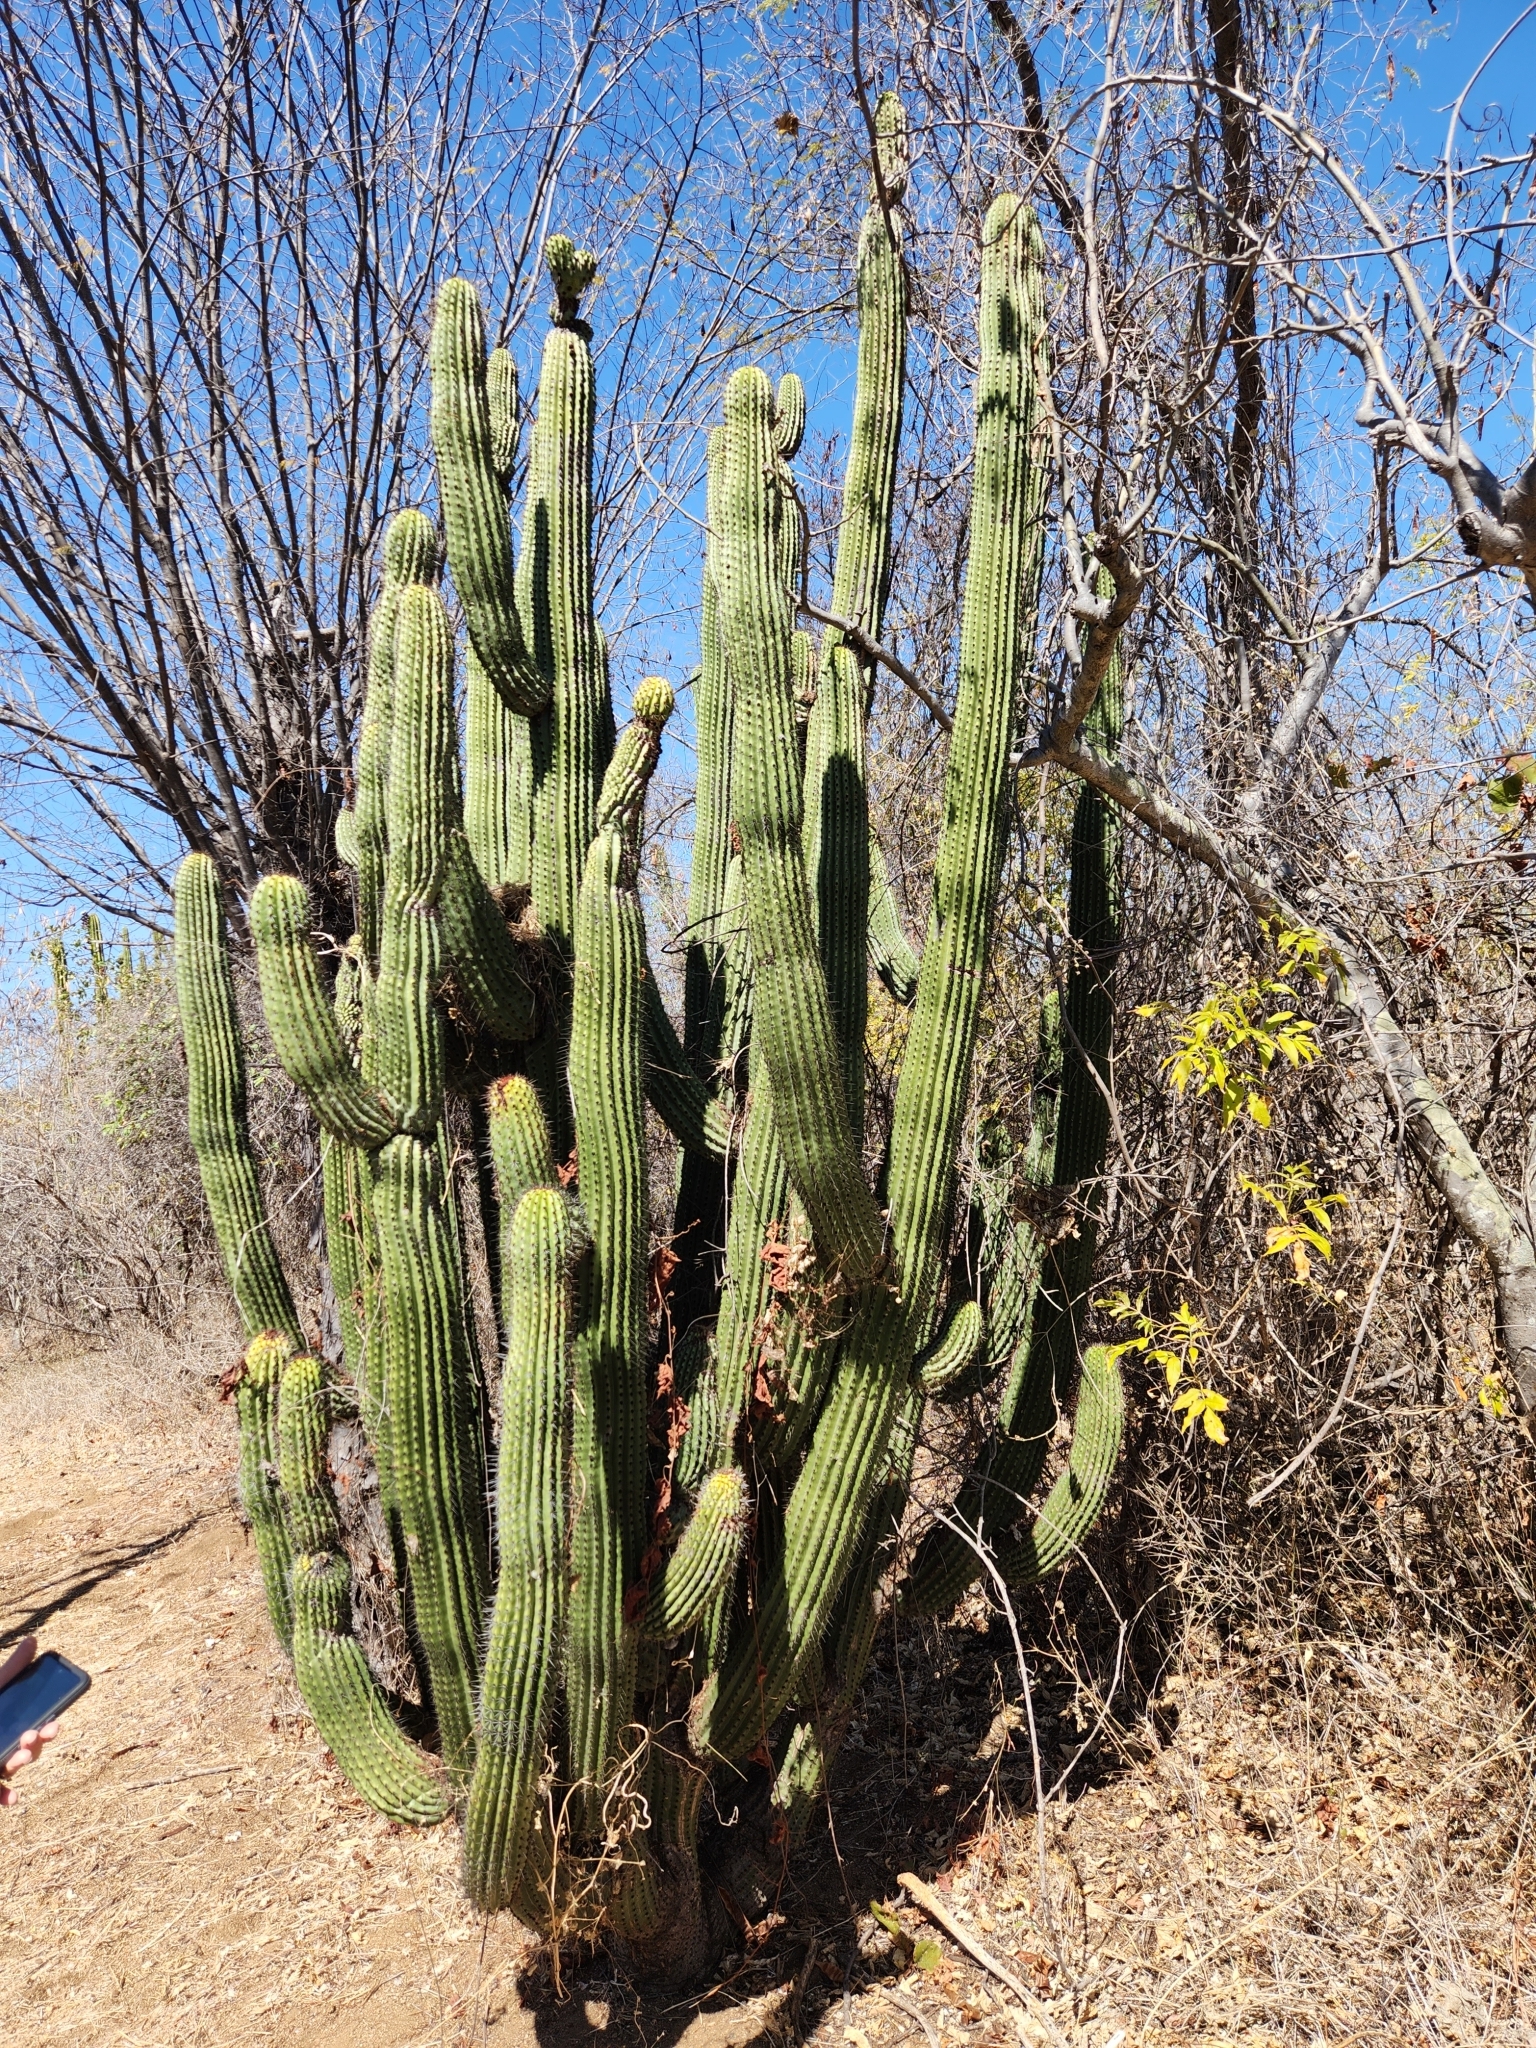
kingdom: Plantae
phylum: Tracheophyta
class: Magnoliopsida
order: Caryophyllales
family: Cactaceae
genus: Stenocereus
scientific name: Stenocereus thurberi
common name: Organ pipe cactus
